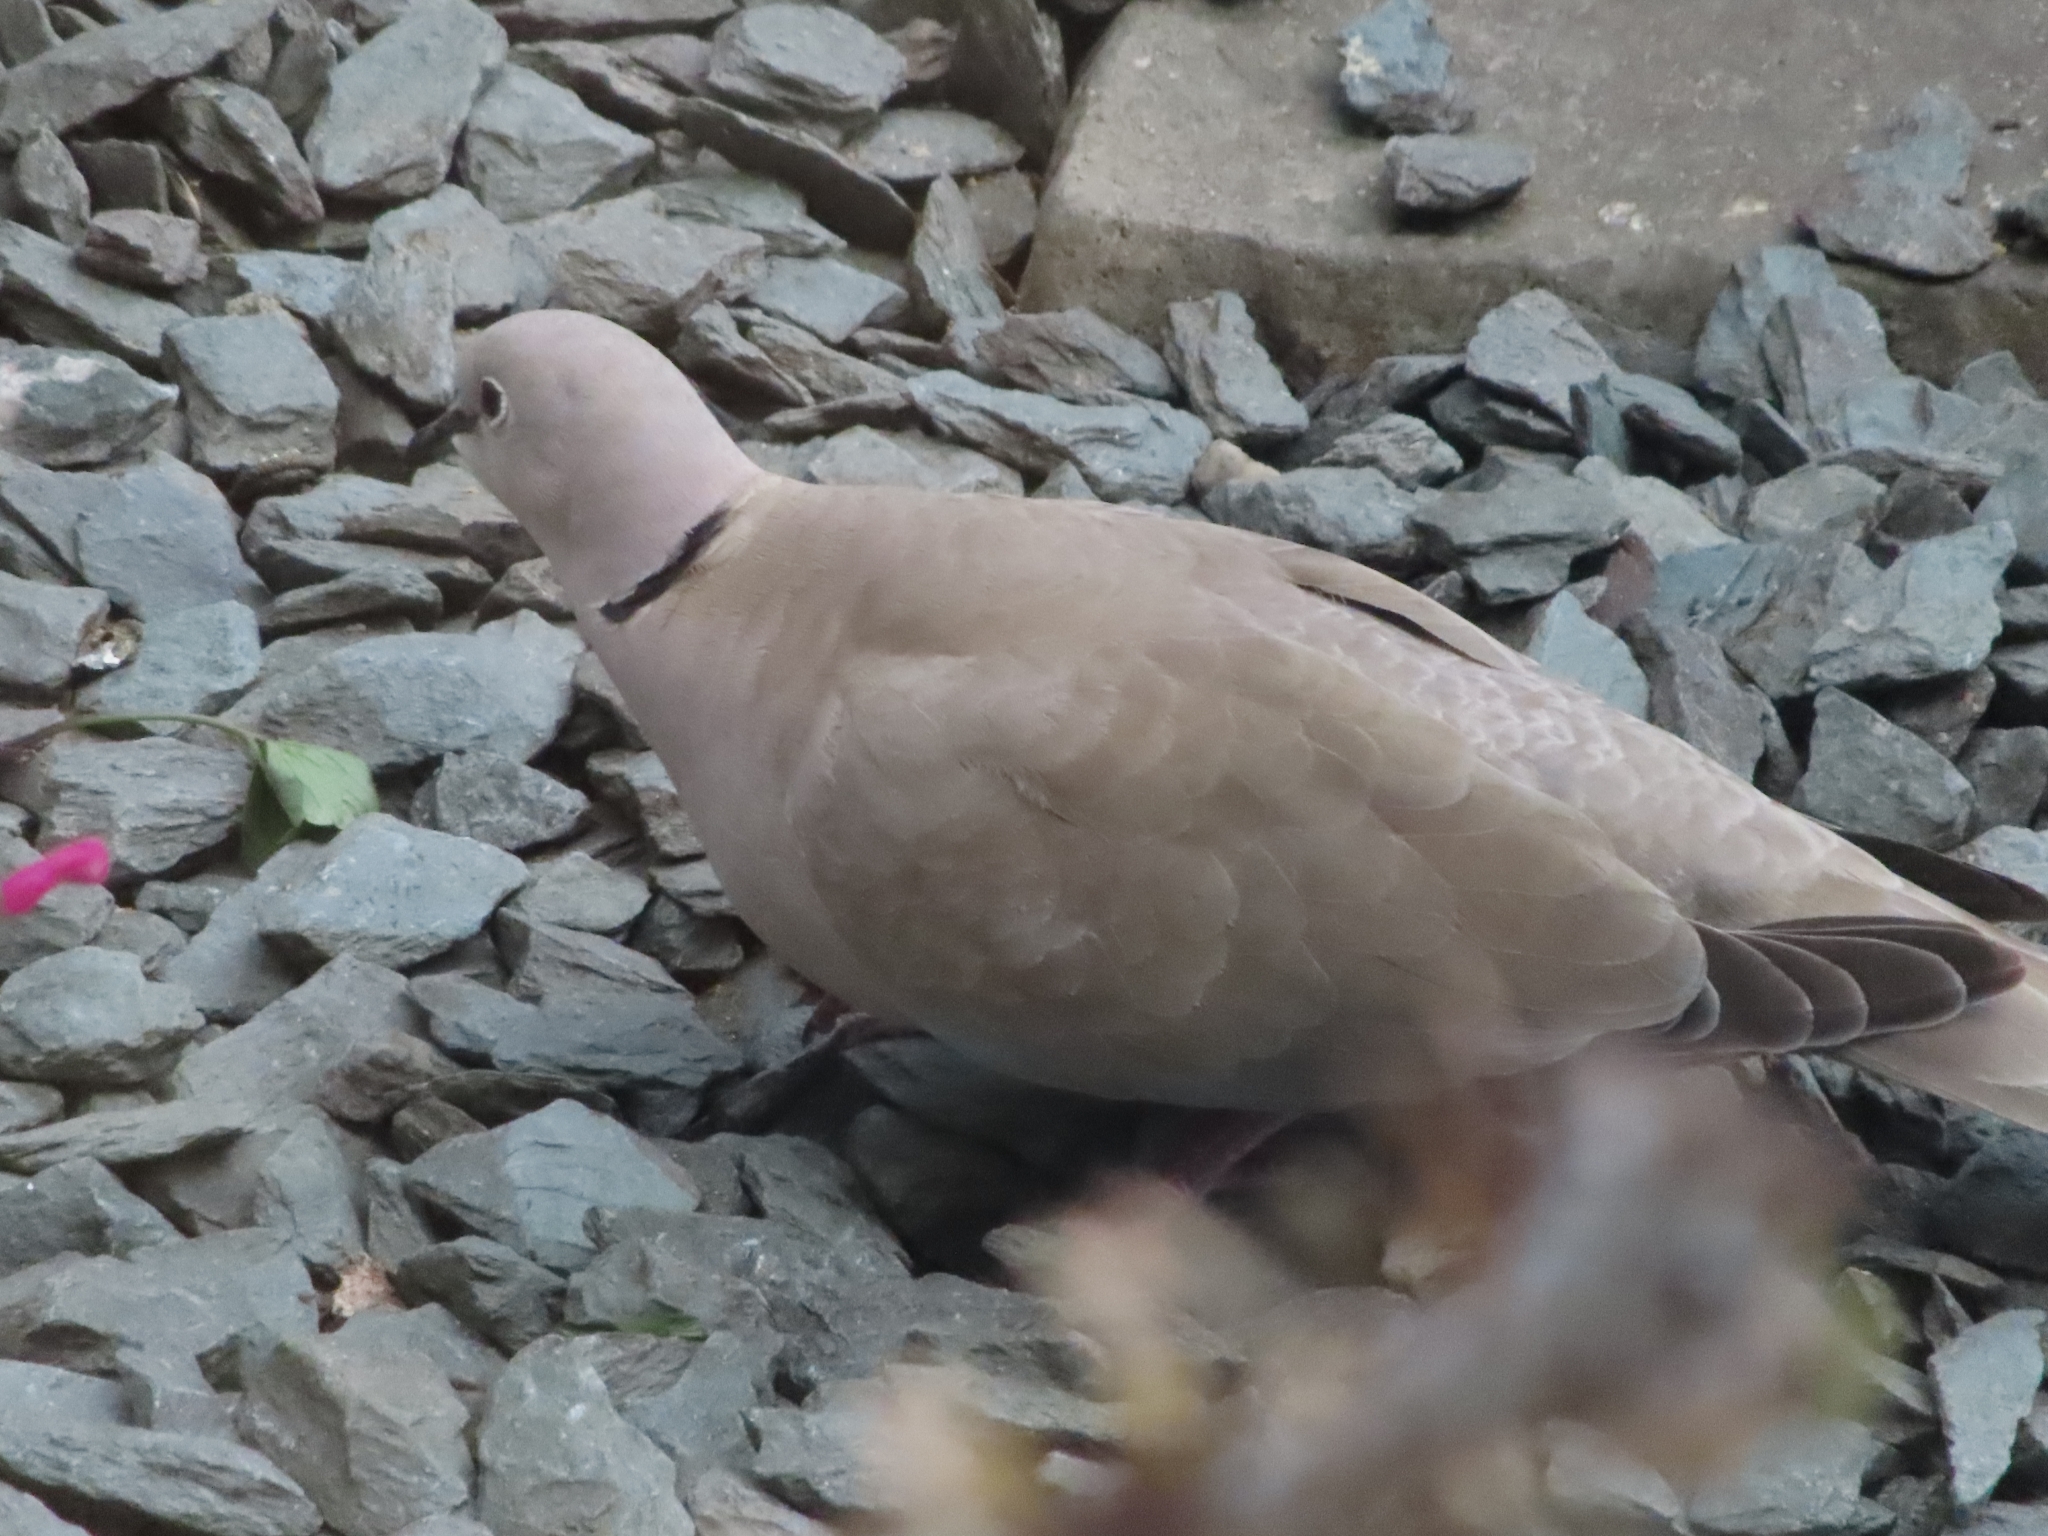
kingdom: Animalia
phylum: Chordata
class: Aves
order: Columbiformes
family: Columbidae
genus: Streptopelia
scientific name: Streptopelia decaocto
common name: Eurasian collared dove
